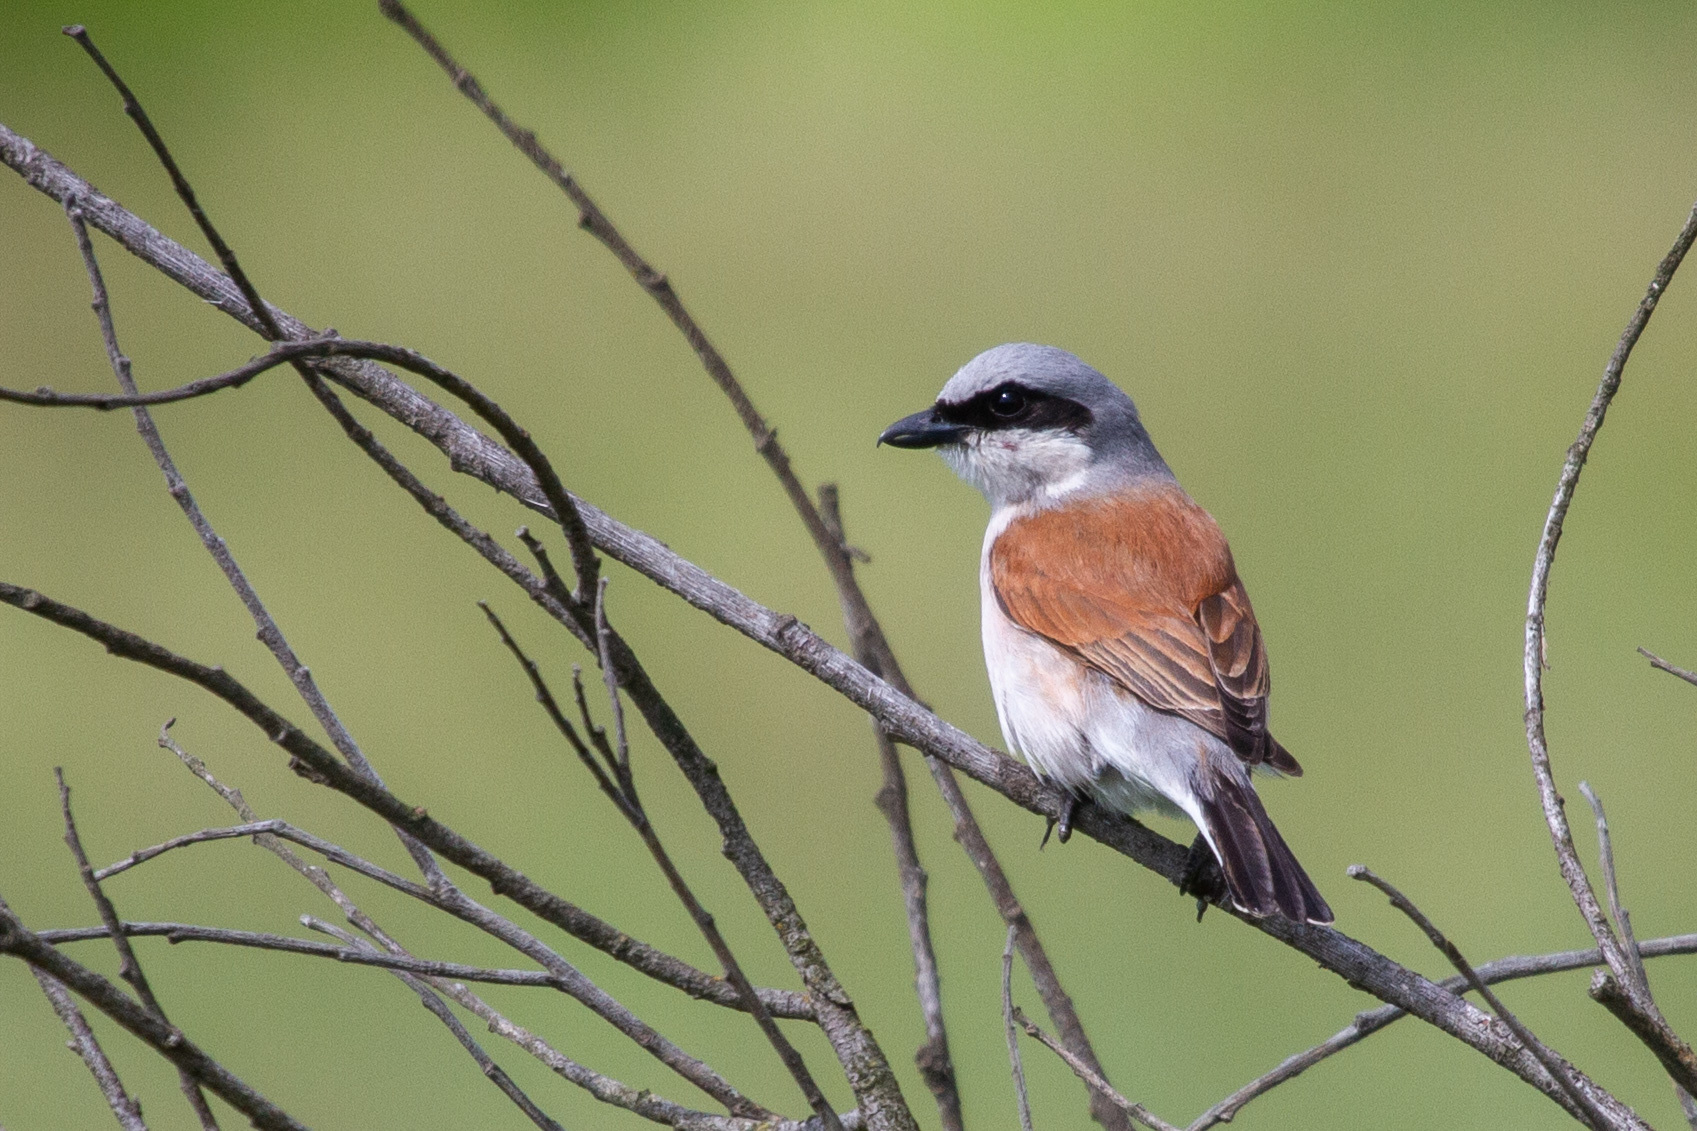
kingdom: Animalia
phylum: Chordata
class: Aves
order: Passeriformes
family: Laniidae
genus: Lanius
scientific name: Lanius collurio
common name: Red-backed shrike
